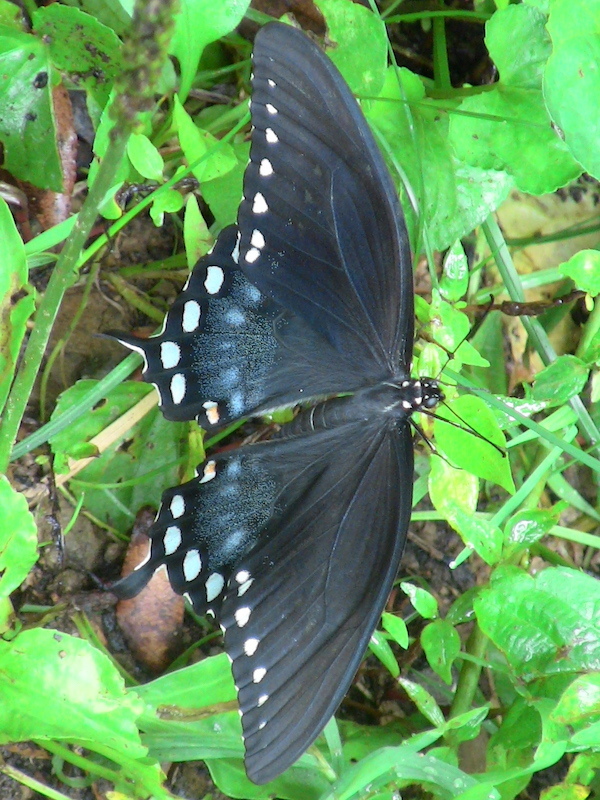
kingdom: Animalia
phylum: Arthropoda
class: Insecta
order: Lepidoptera
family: Papilionidae
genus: Papilio
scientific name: Papilio troilus
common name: Spicebush swallowtail
